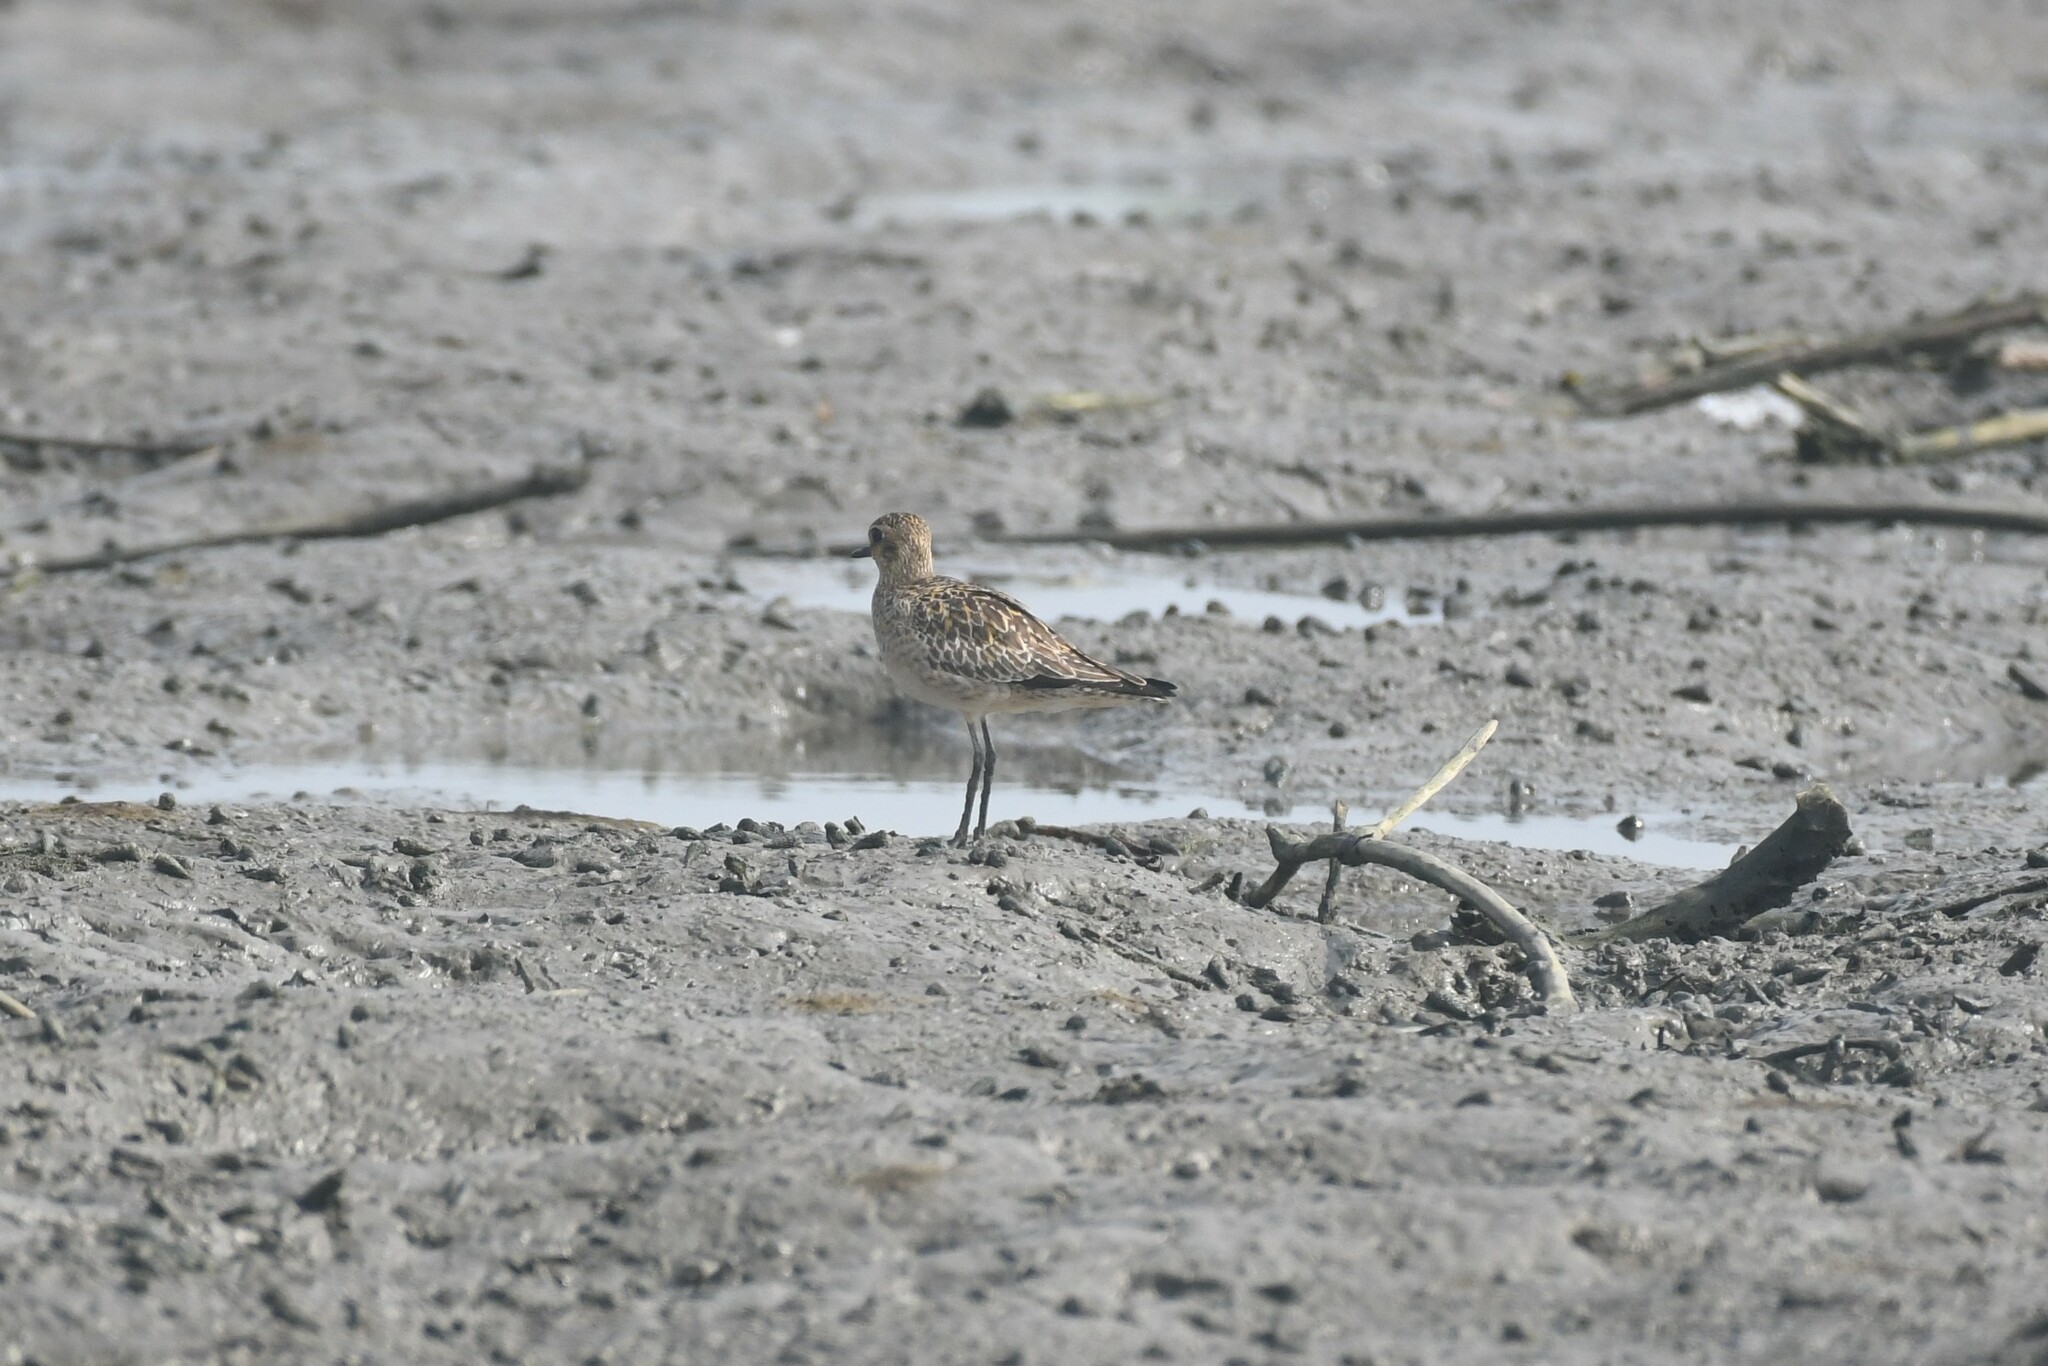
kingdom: Animalia
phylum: Chordata
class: Aves
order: Charadriiformes
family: Charadriidae
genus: Pluvialis
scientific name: Pluvialis fulva
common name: Pacific golden plover
